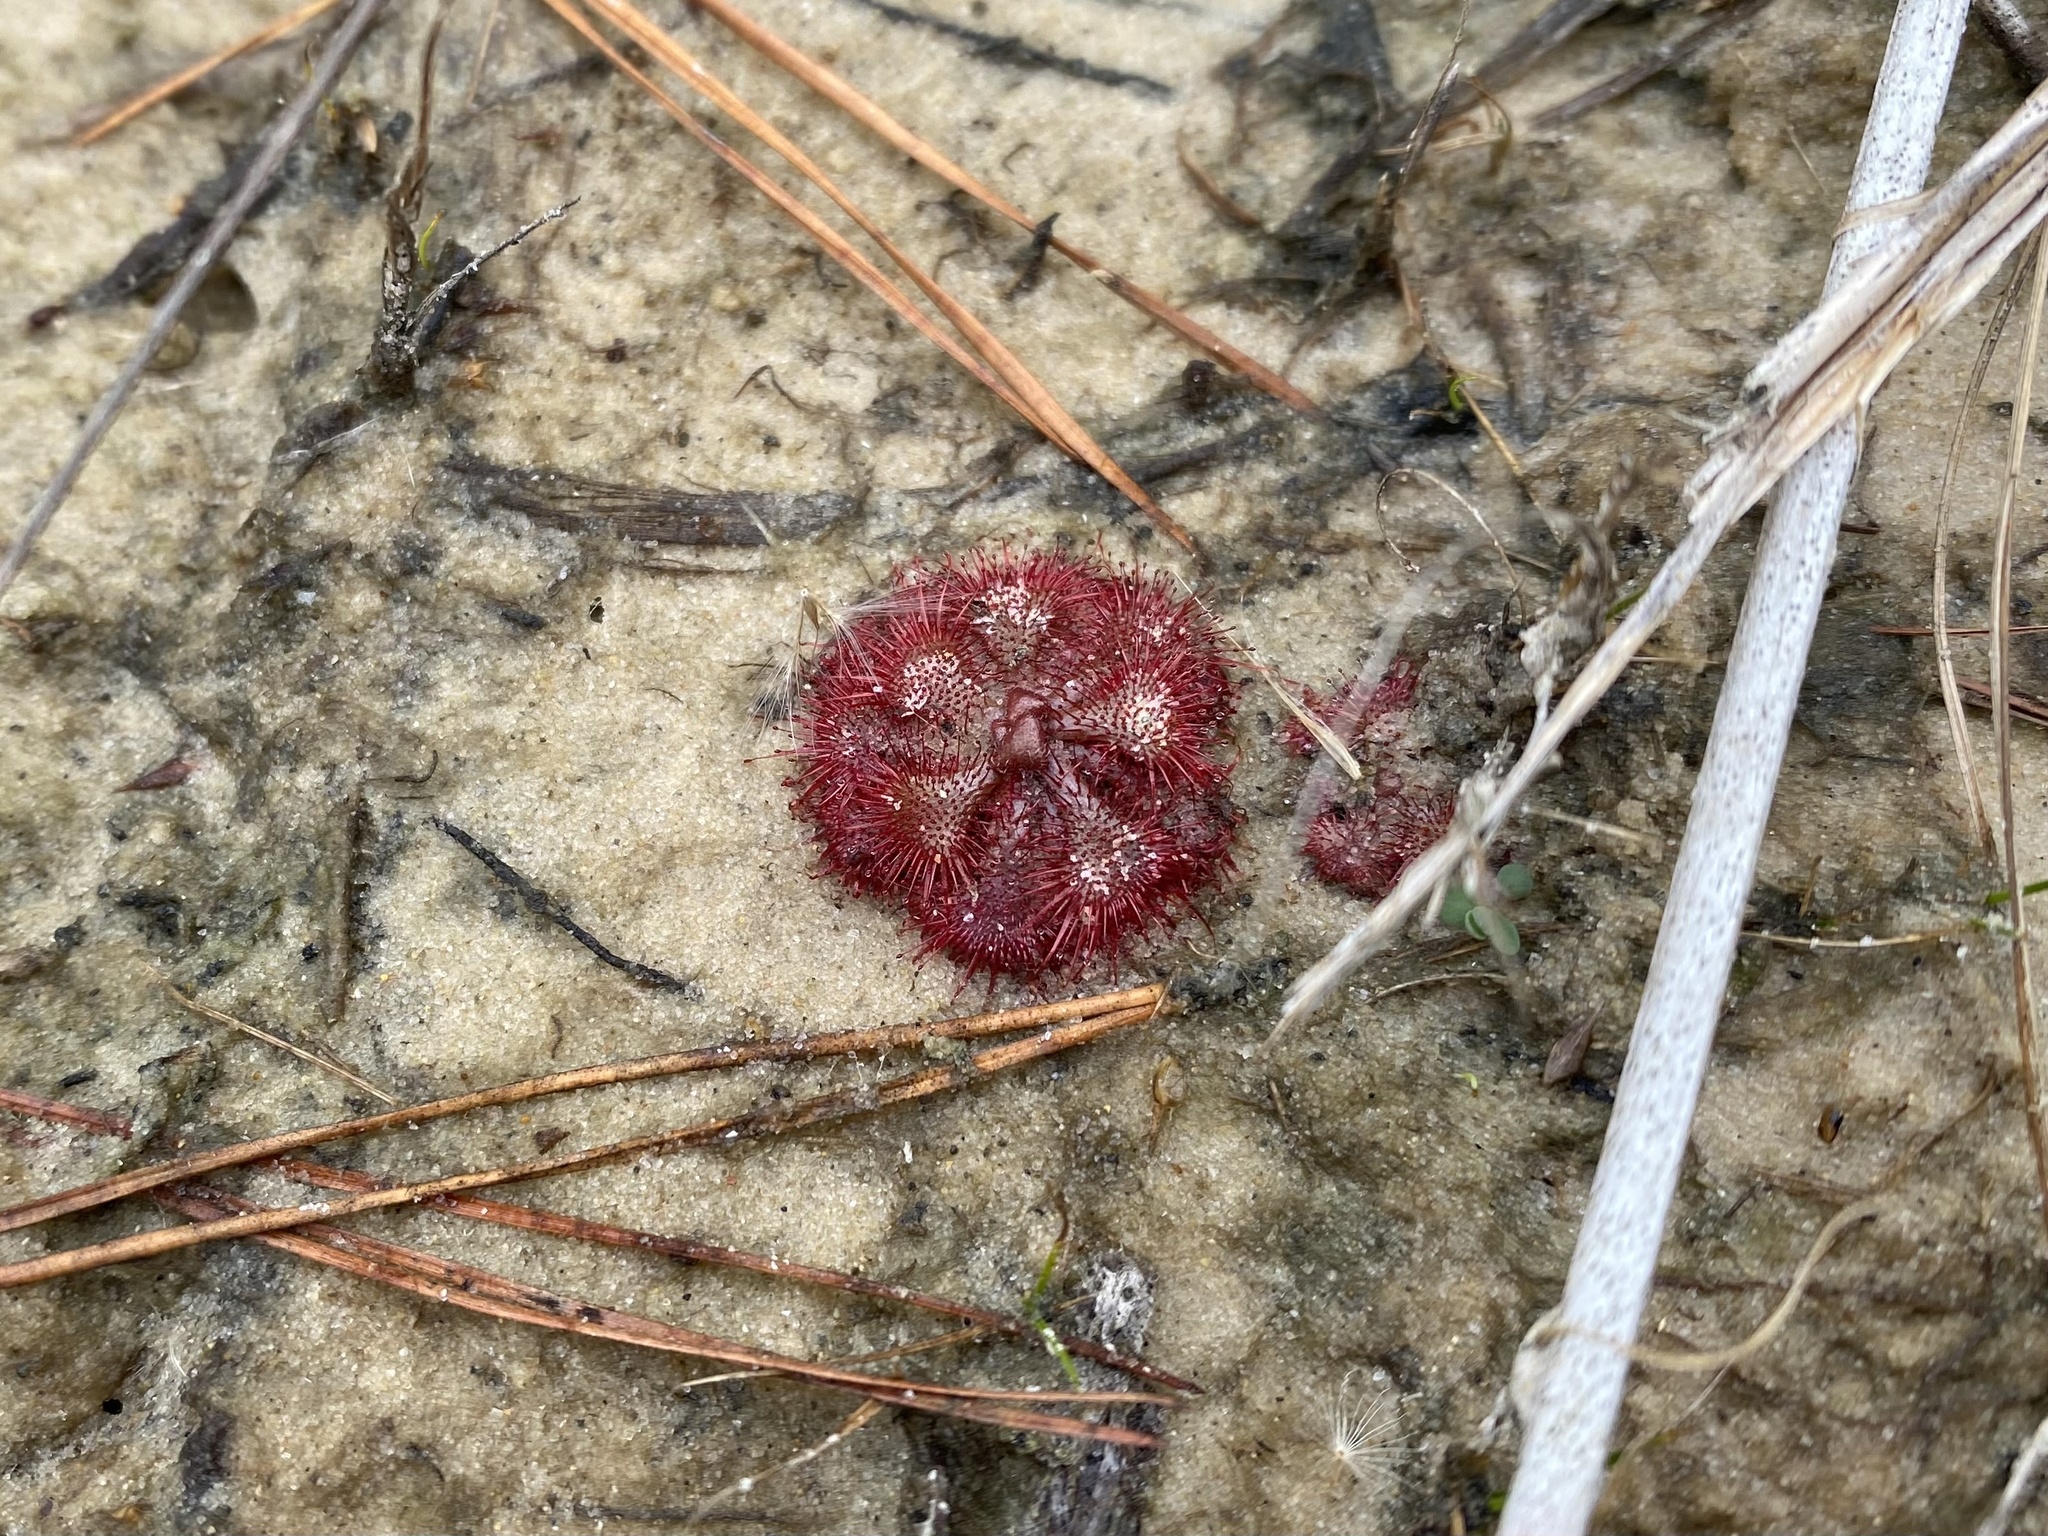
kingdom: Plantae
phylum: Tracheophyta
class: Magnoliopsida
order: Caryophyllales
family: Droseraceae
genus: Drosera
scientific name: Drosera brevifolia
